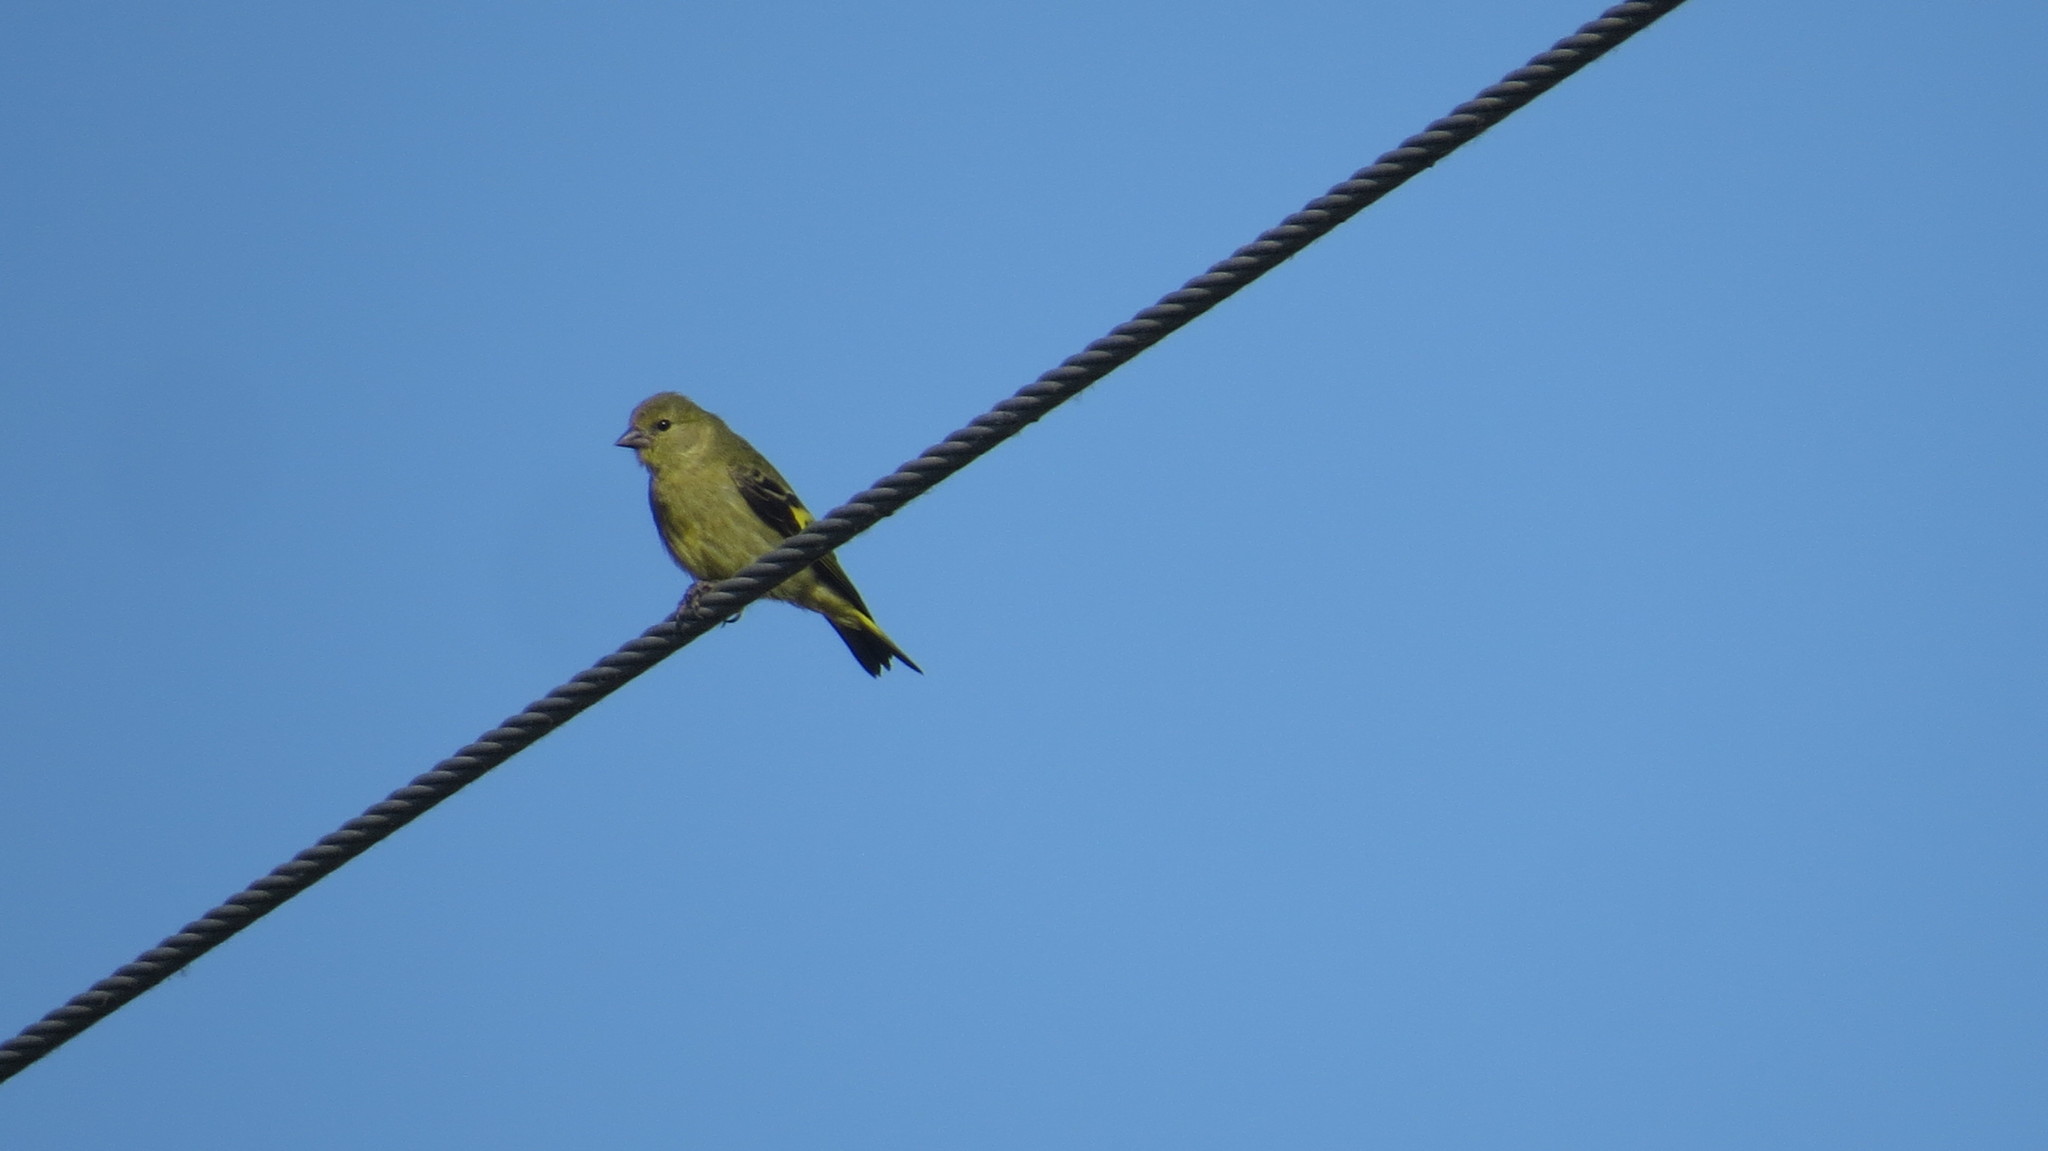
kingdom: Animalia
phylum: Chordata
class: Aves
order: Passeriformes
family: Fringillidae
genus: Spinus
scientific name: Spinus magellanicus
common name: Hooded siskin
